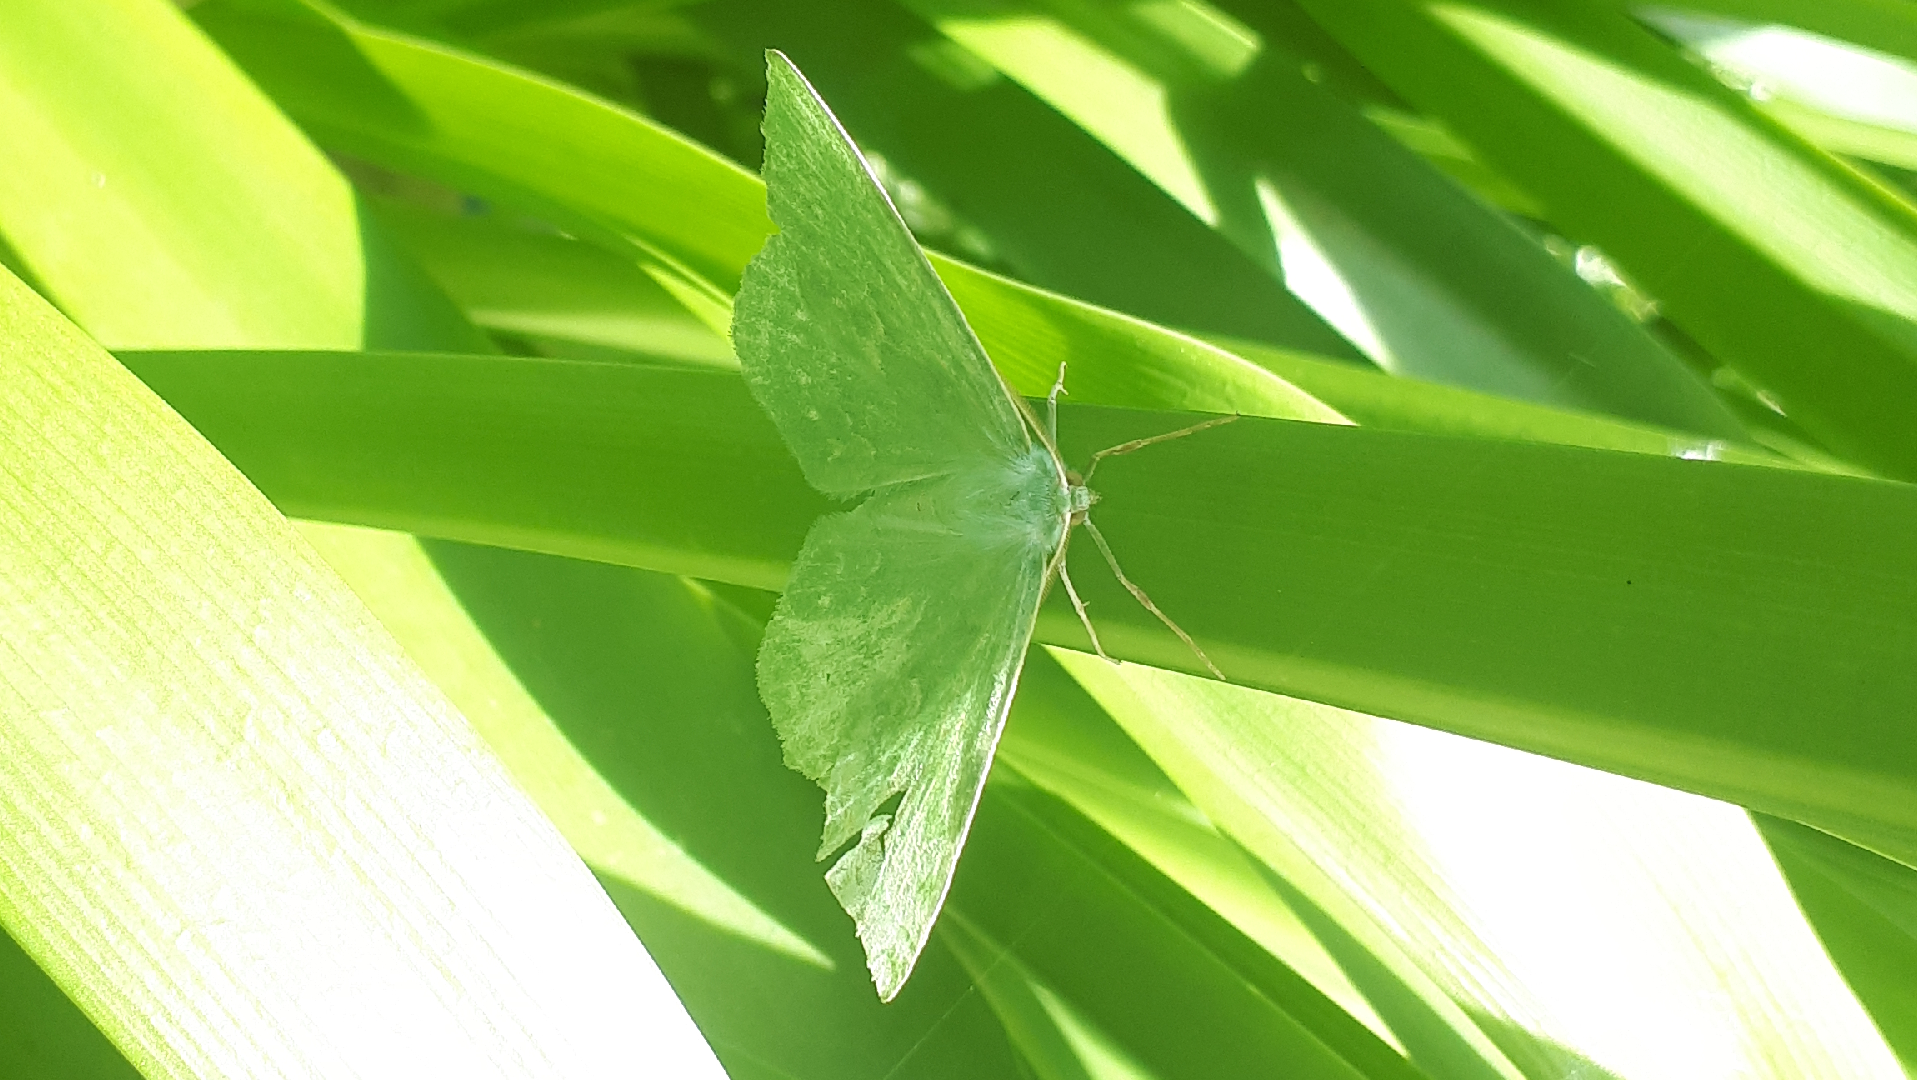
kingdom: Animalia
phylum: Arthropoda
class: Insecta
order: Lepidoptera
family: Geometridae
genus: Geometra
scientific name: Geometra papilionaria
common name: Large emerald
